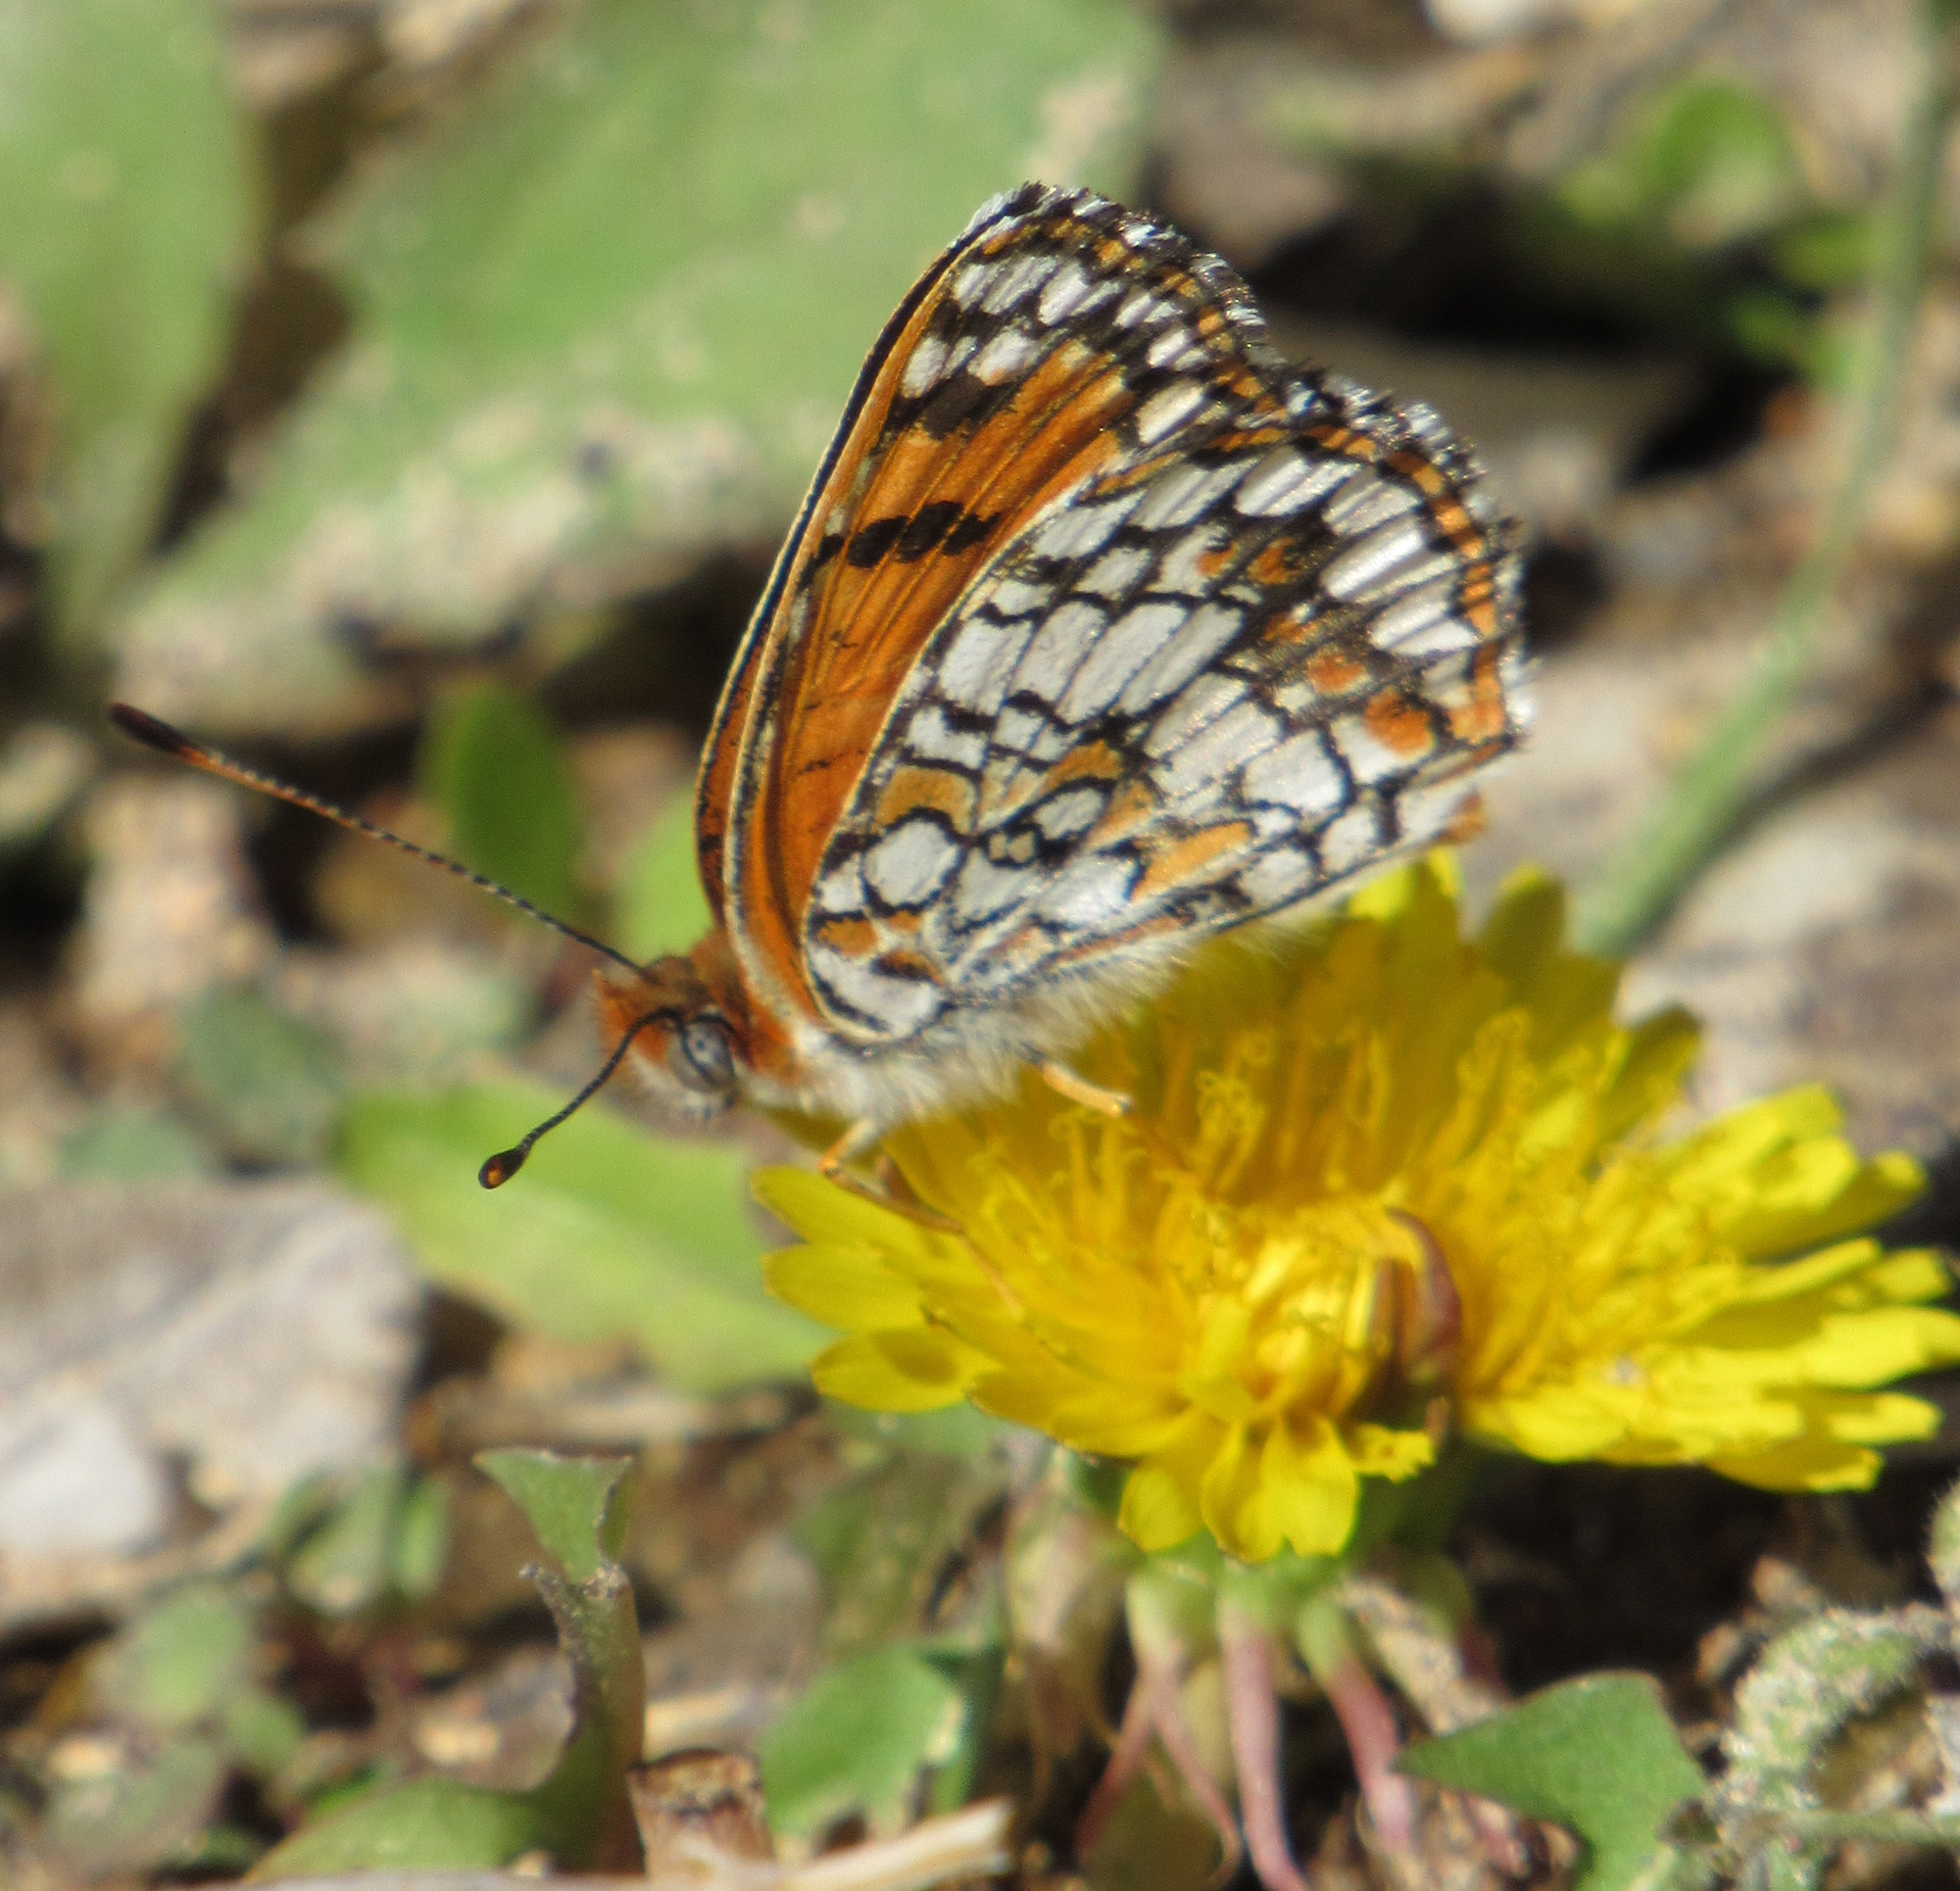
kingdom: Animalia
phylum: Arthropoda
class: Insecta
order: Lepidoptera
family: Nymphalidae
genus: Chlosyne
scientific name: Chlosyne acastus
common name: Sagebrush checkerspot
